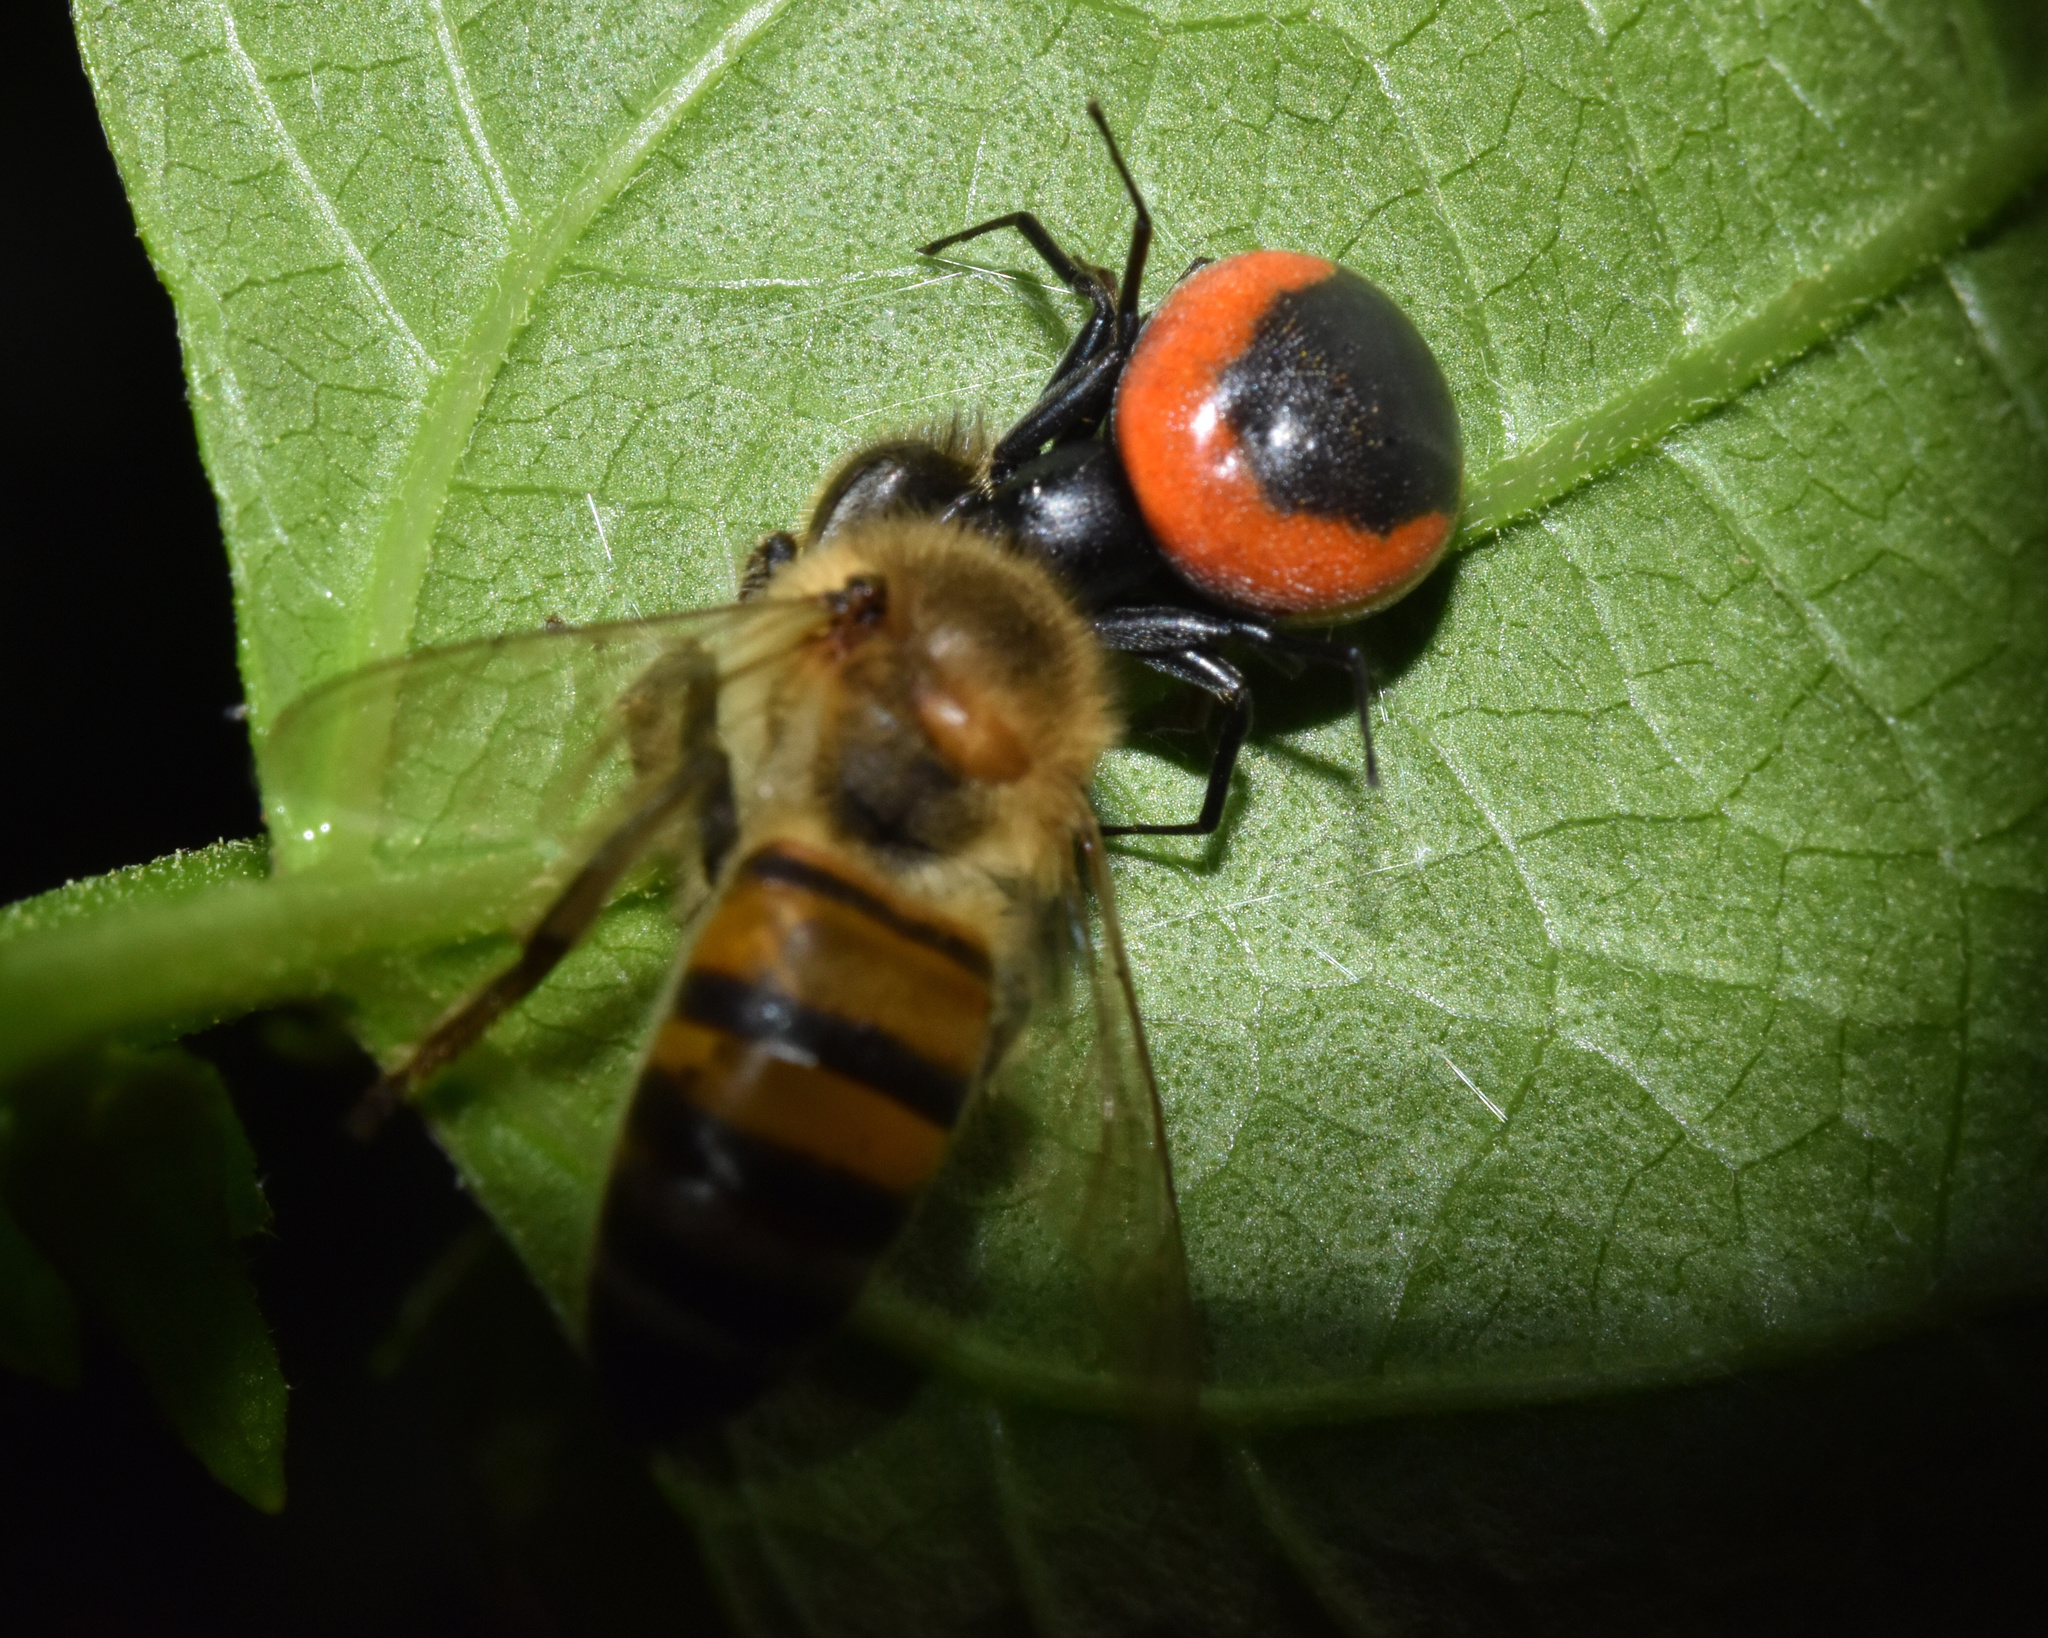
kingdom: Animalia
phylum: Arthropoda
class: Arachnida
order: Araneae
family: Thomisidae
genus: Mystaria
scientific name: Mystaria rufolimbata
